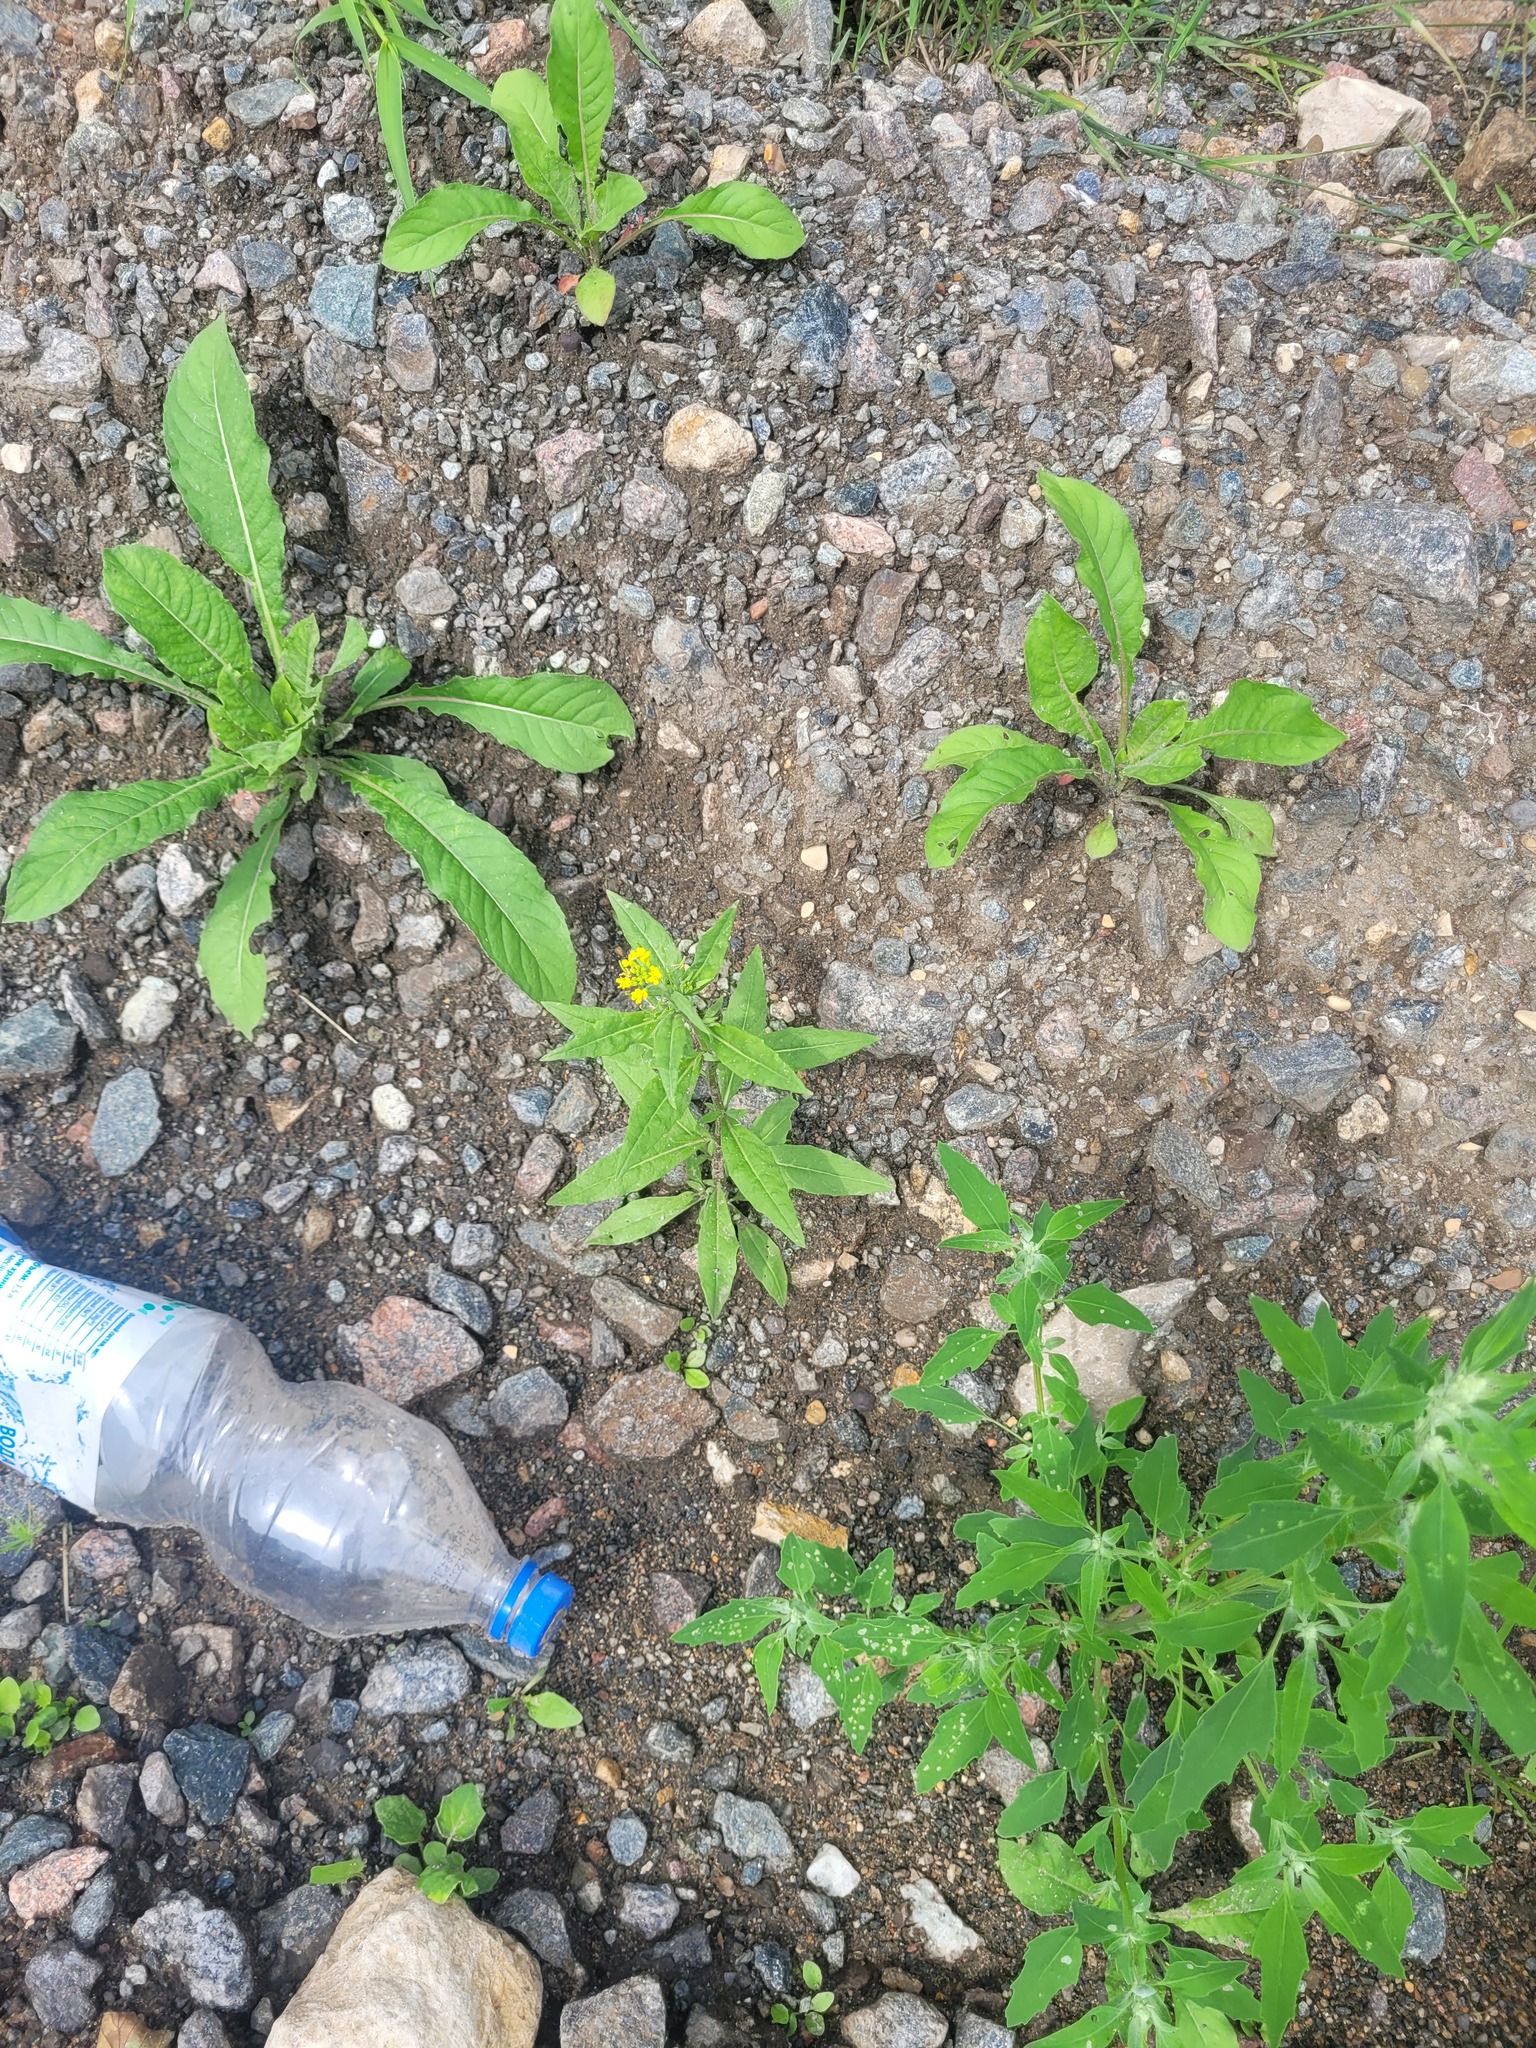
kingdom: Plantae
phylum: Tracheophyta
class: Magnoliopsida
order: Brassicales
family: Brassicaceae
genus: Erysimum
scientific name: Erysimum cheiranthoides
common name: Treacle mustard
